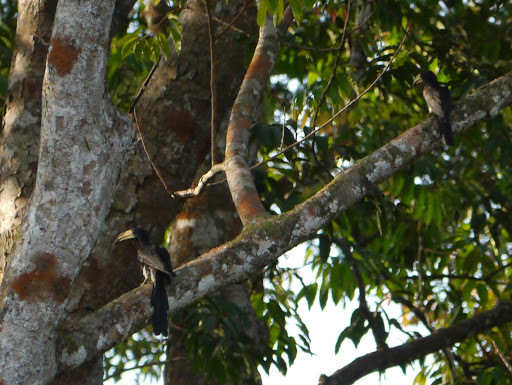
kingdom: Animalia
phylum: Chordata
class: Aves
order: Bucerotiformes
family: Bucerotidae
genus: Lophoceros
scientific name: Lophoceros fasciatus
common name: African pied hornbill
